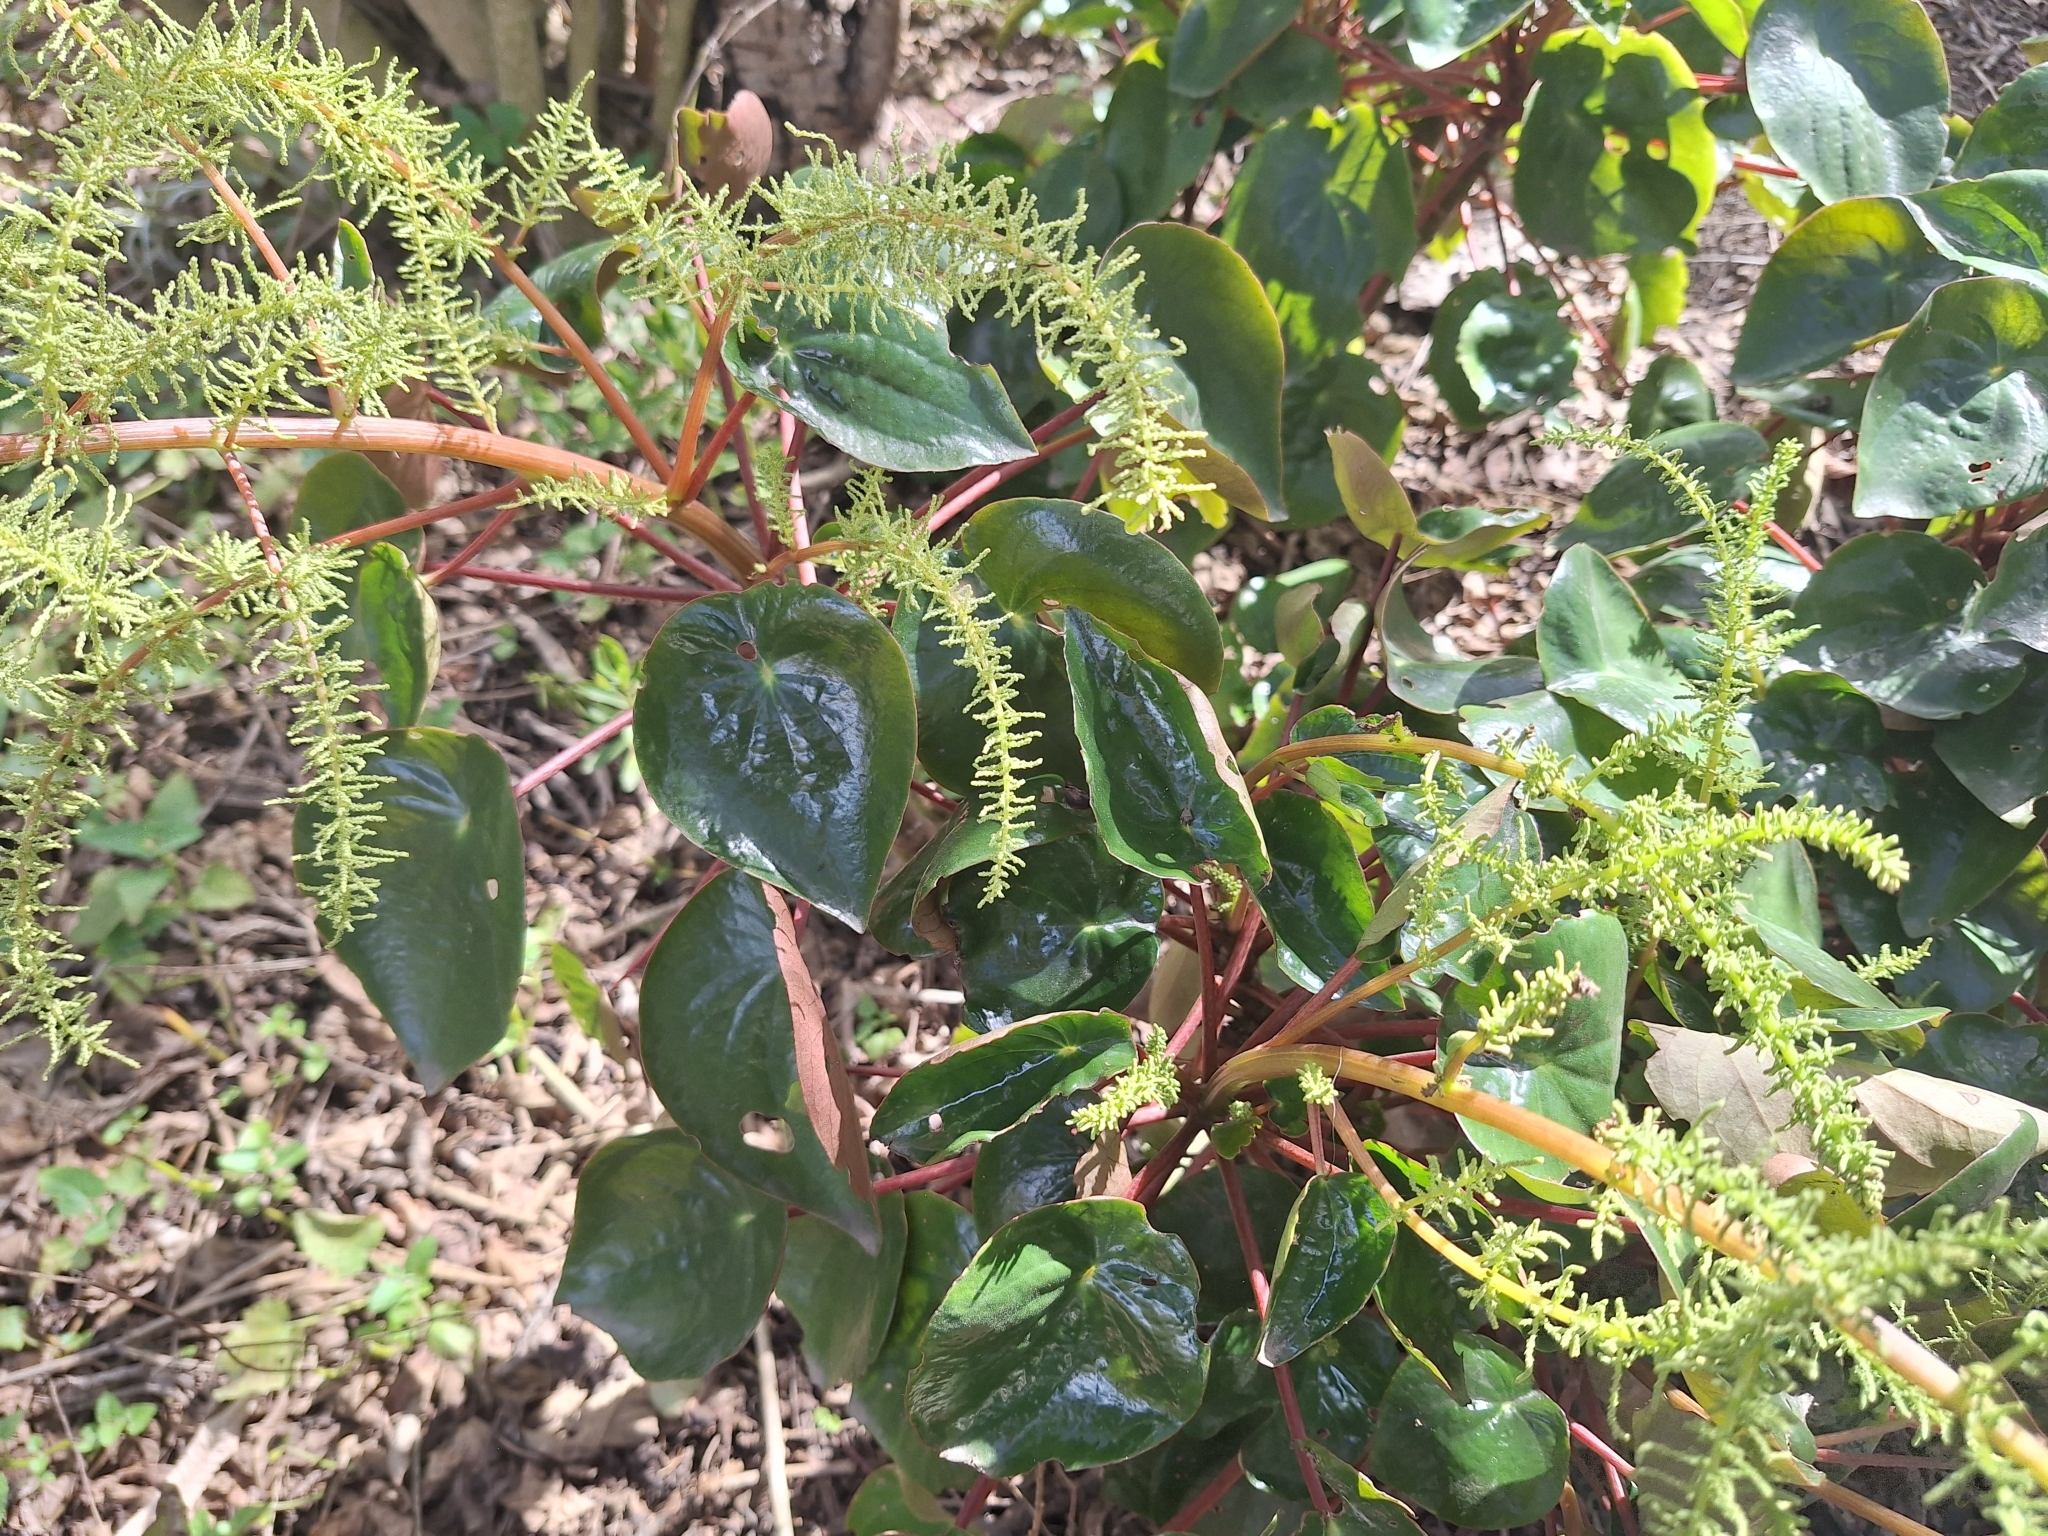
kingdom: Plantae
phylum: Tracheophyta
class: Magnoliopsida
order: Piperales
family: Piperaceae
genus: Peperomia
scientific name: Peperomia peltigera
